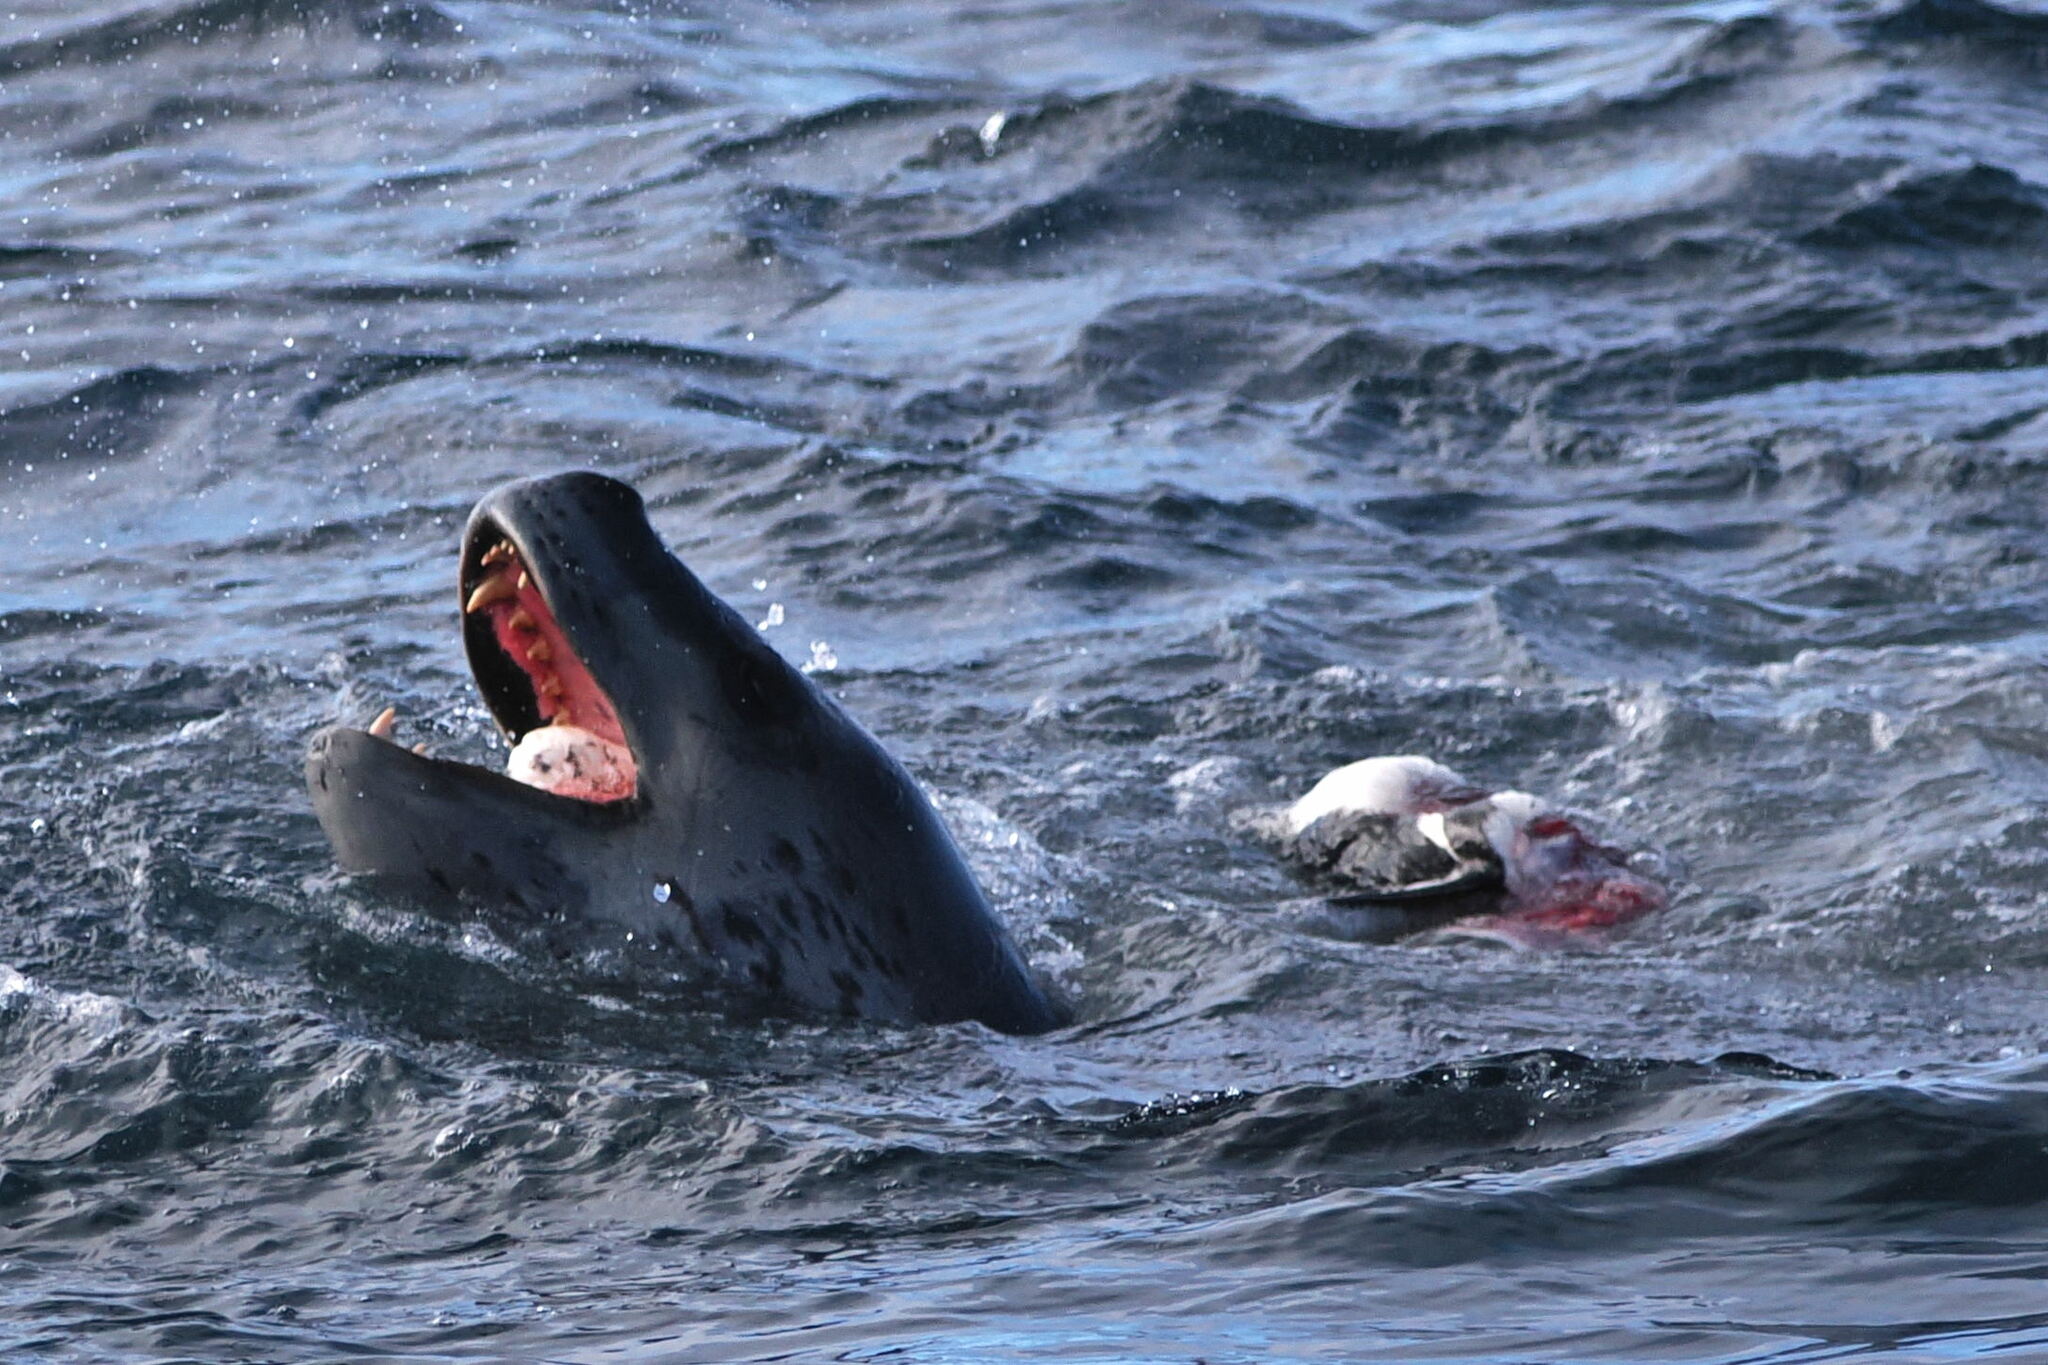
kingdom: Animalia
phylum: Chordata
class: Mammalia
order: Carnivora
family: Phocidae
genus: Hydrurga
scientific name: Hydrurga leptonyx
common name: Leopard seal
